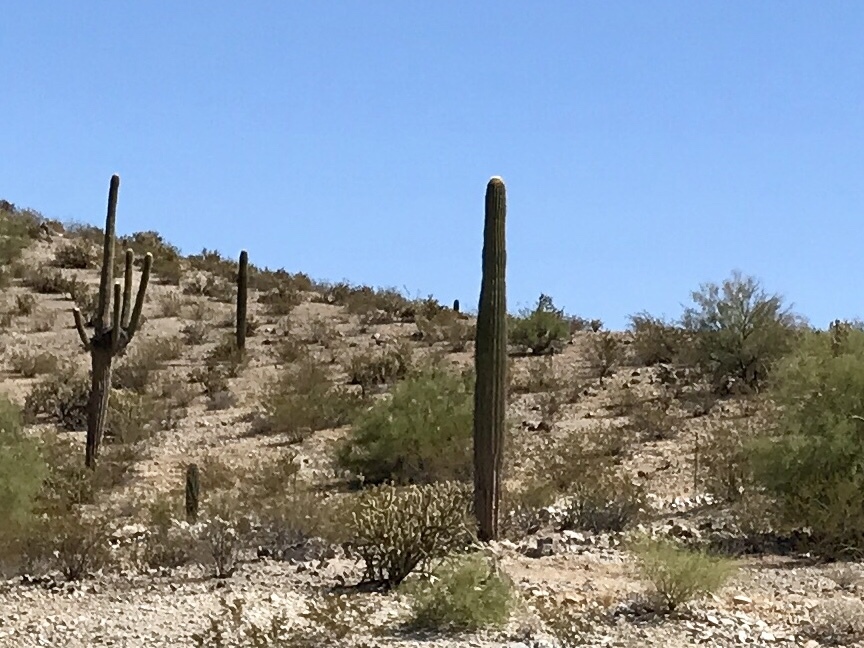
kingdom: Plantae
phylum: Tracheophyta
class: Magnoliopsida
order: Caryophyllales
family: Cactaceae
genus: Carnegiea
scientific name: Carnegiea gigantea
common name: Saguaro
